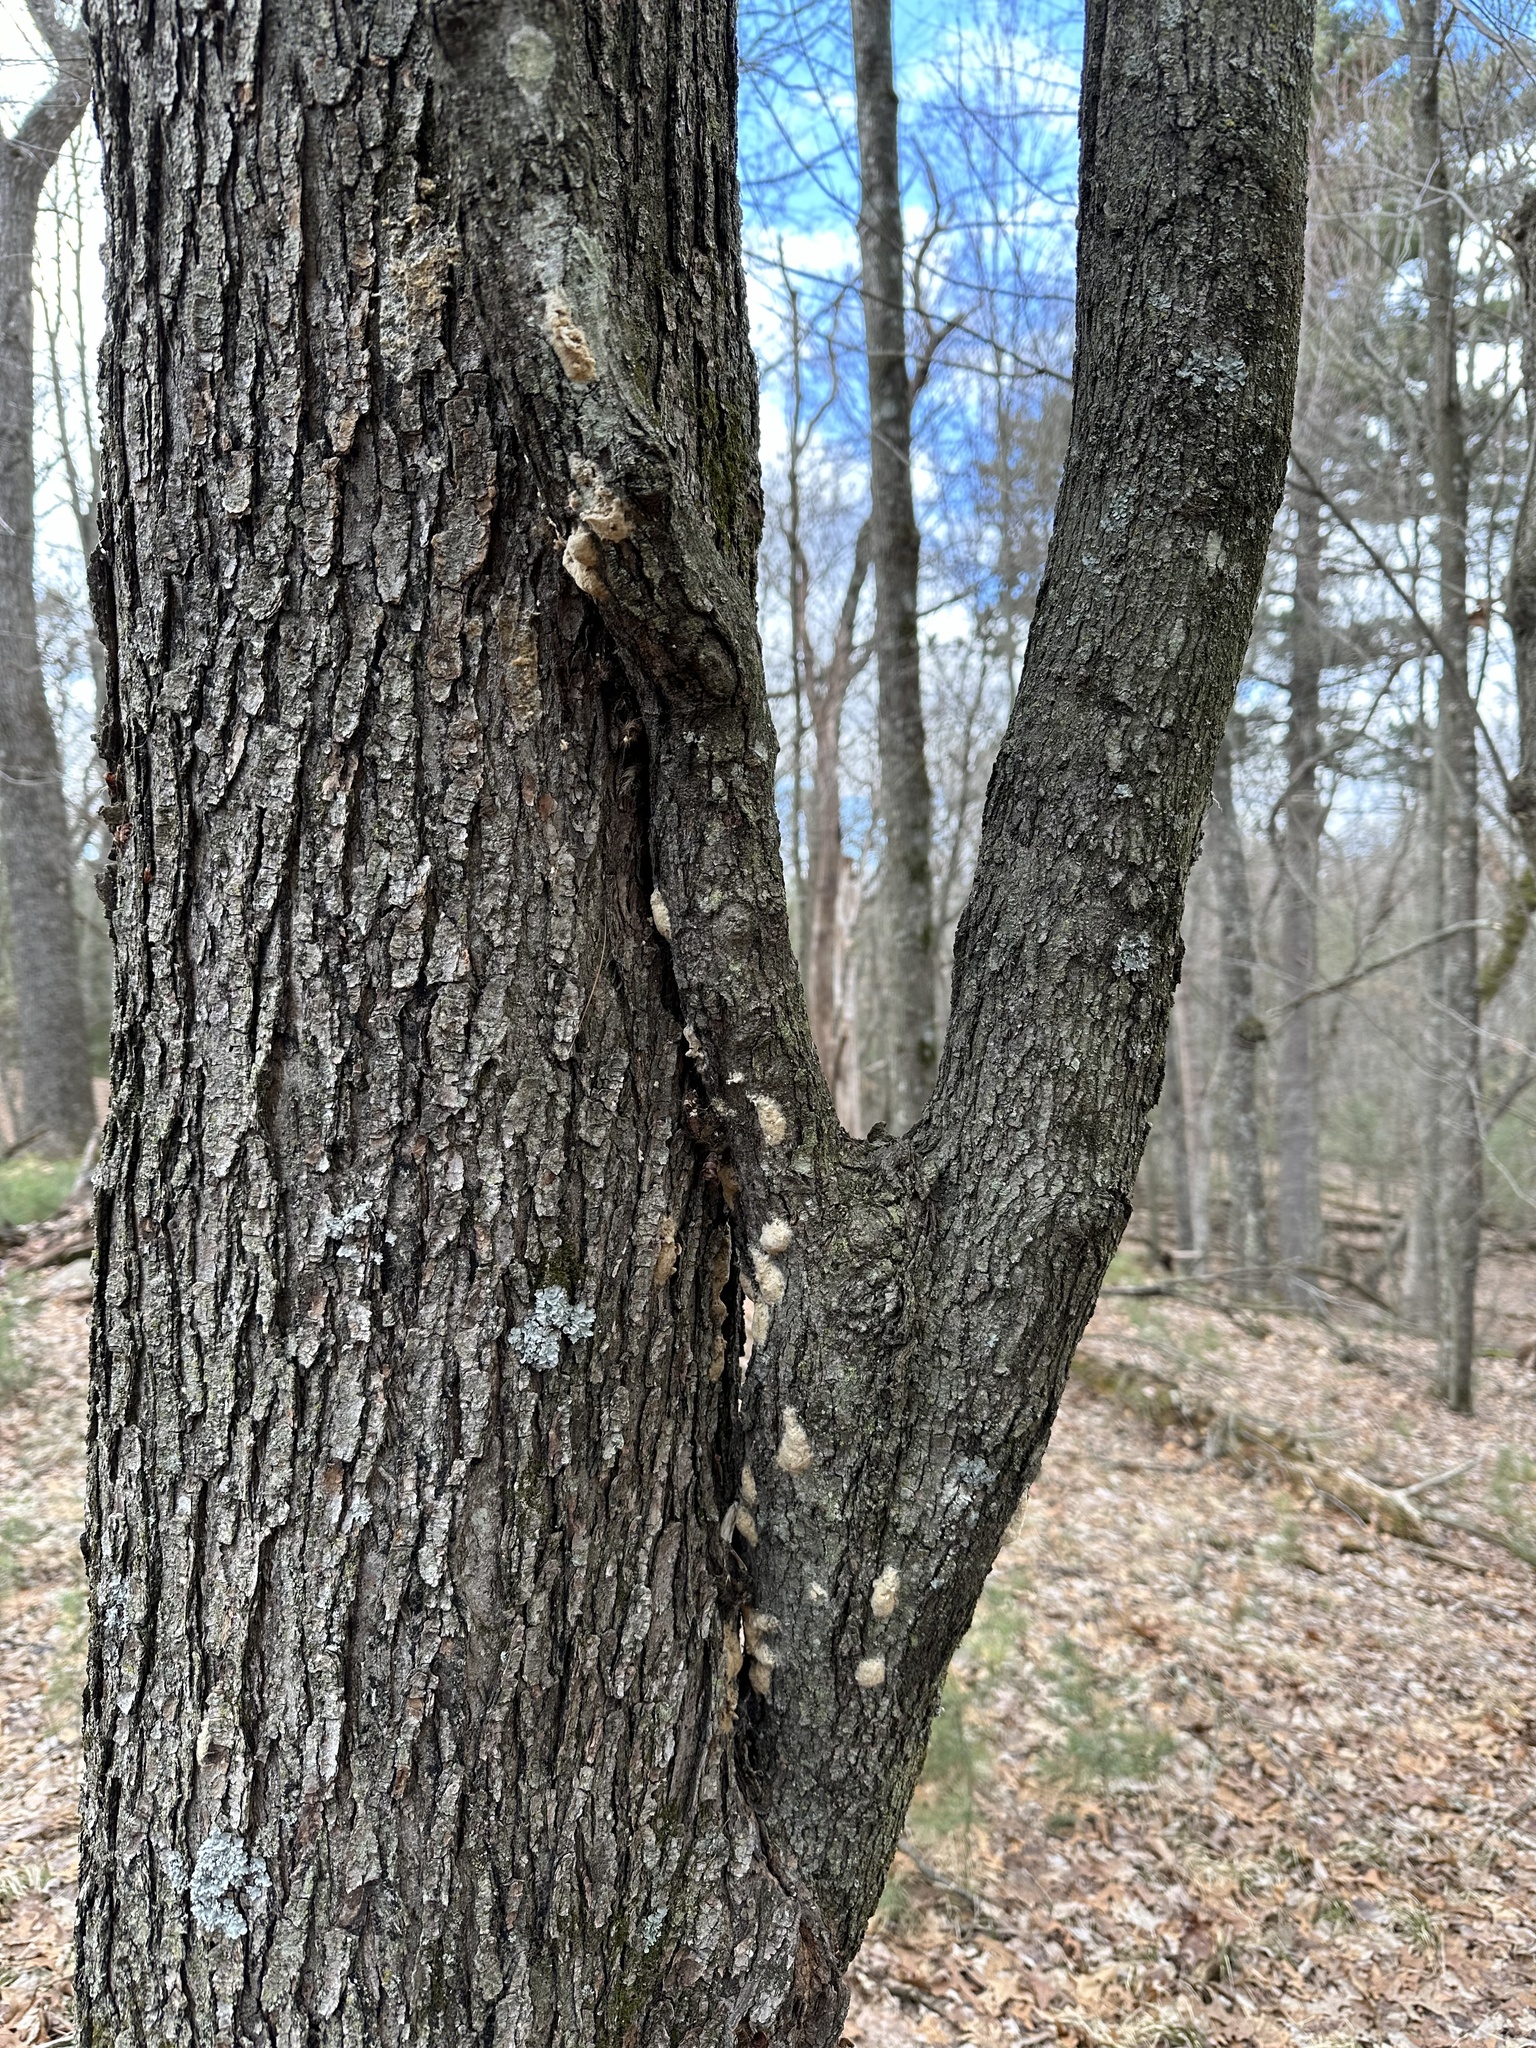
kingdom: Animalia
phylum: Arthropoda
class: Insecta
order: Lepidoptera
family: Erebidae
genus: Lymantria
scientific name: Lymantria dispar
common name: Gypsy moth
